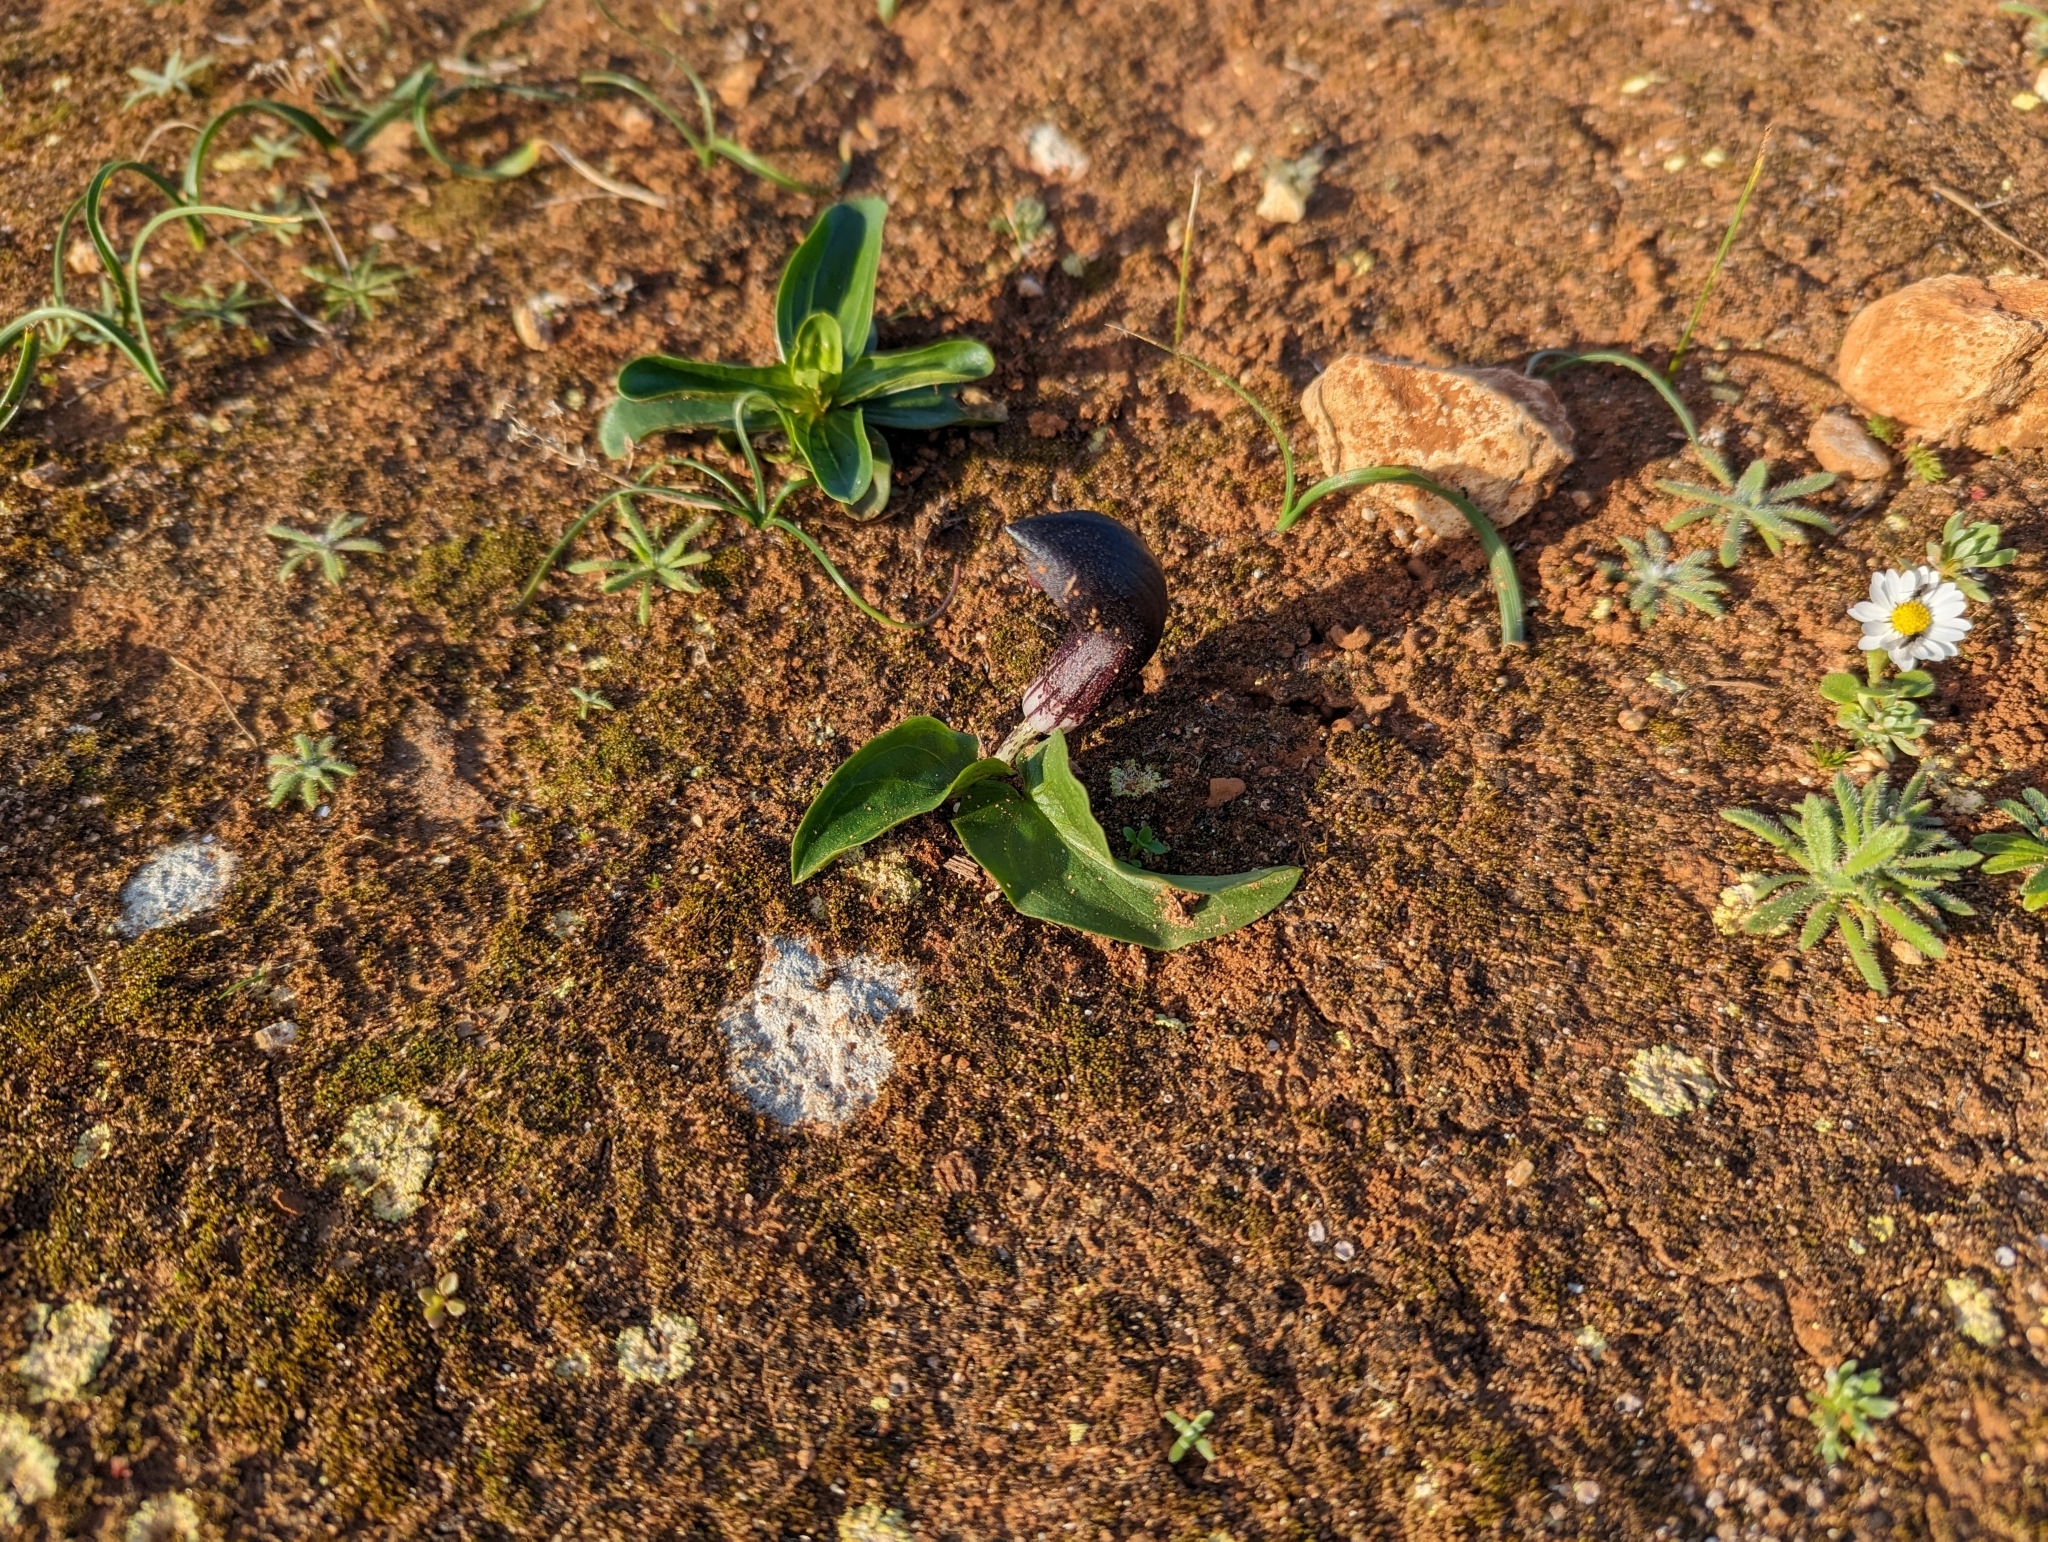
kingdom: Plantae
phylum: Tracheophyta
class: Liliopsida
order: Alismatales
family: Araceae
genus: Arisarum
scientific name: Arisarum simorrhinum
